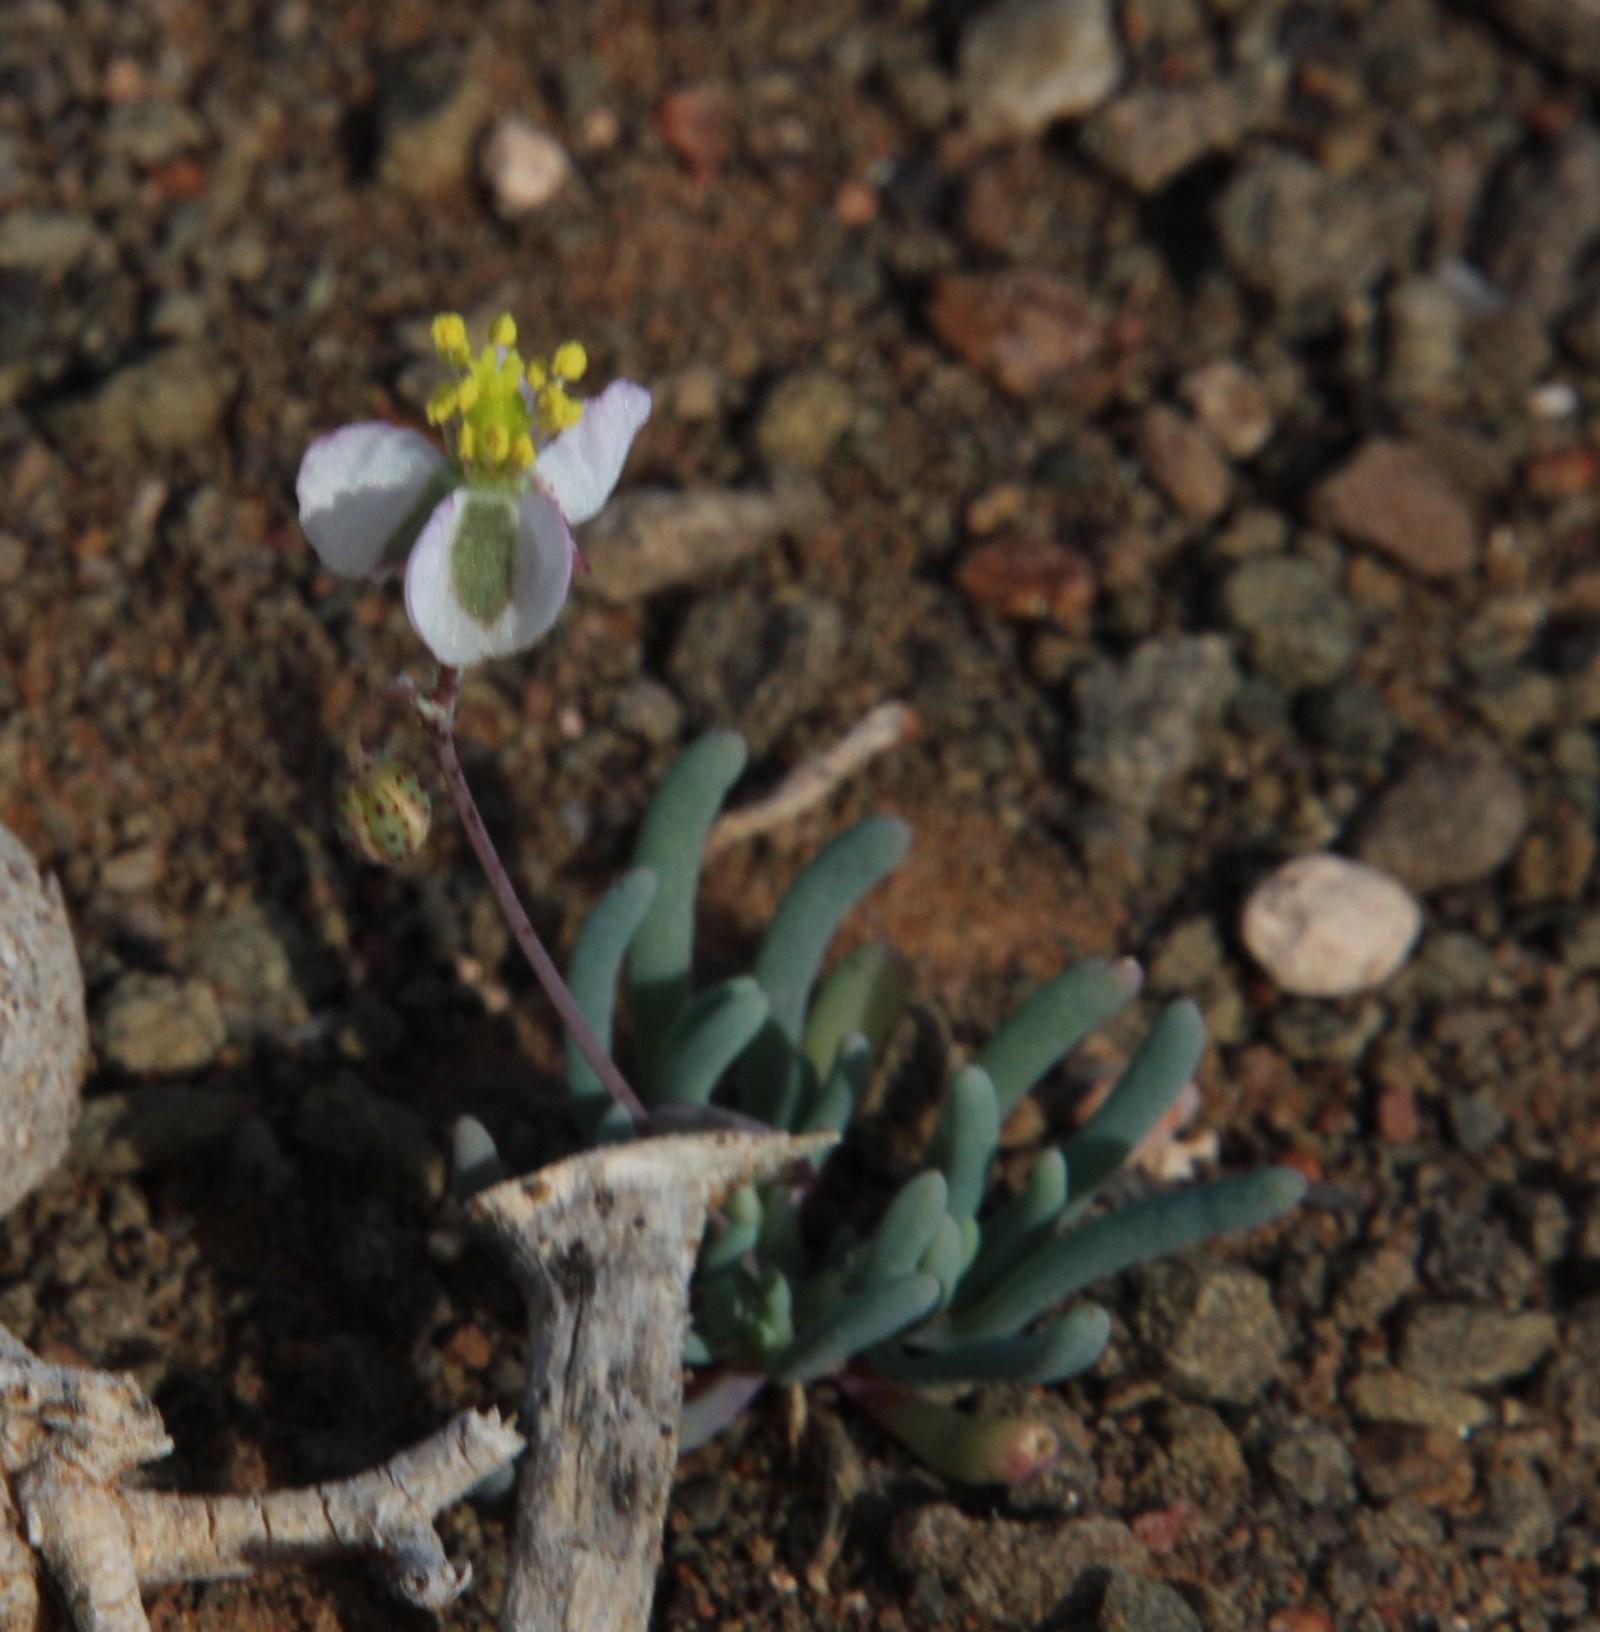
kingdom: Plantae
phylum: Tracheophyta
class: Magnoliopsida
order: Caryophyllales
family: Kewaceae
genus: Kewa
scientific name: Kewa salsoloides
